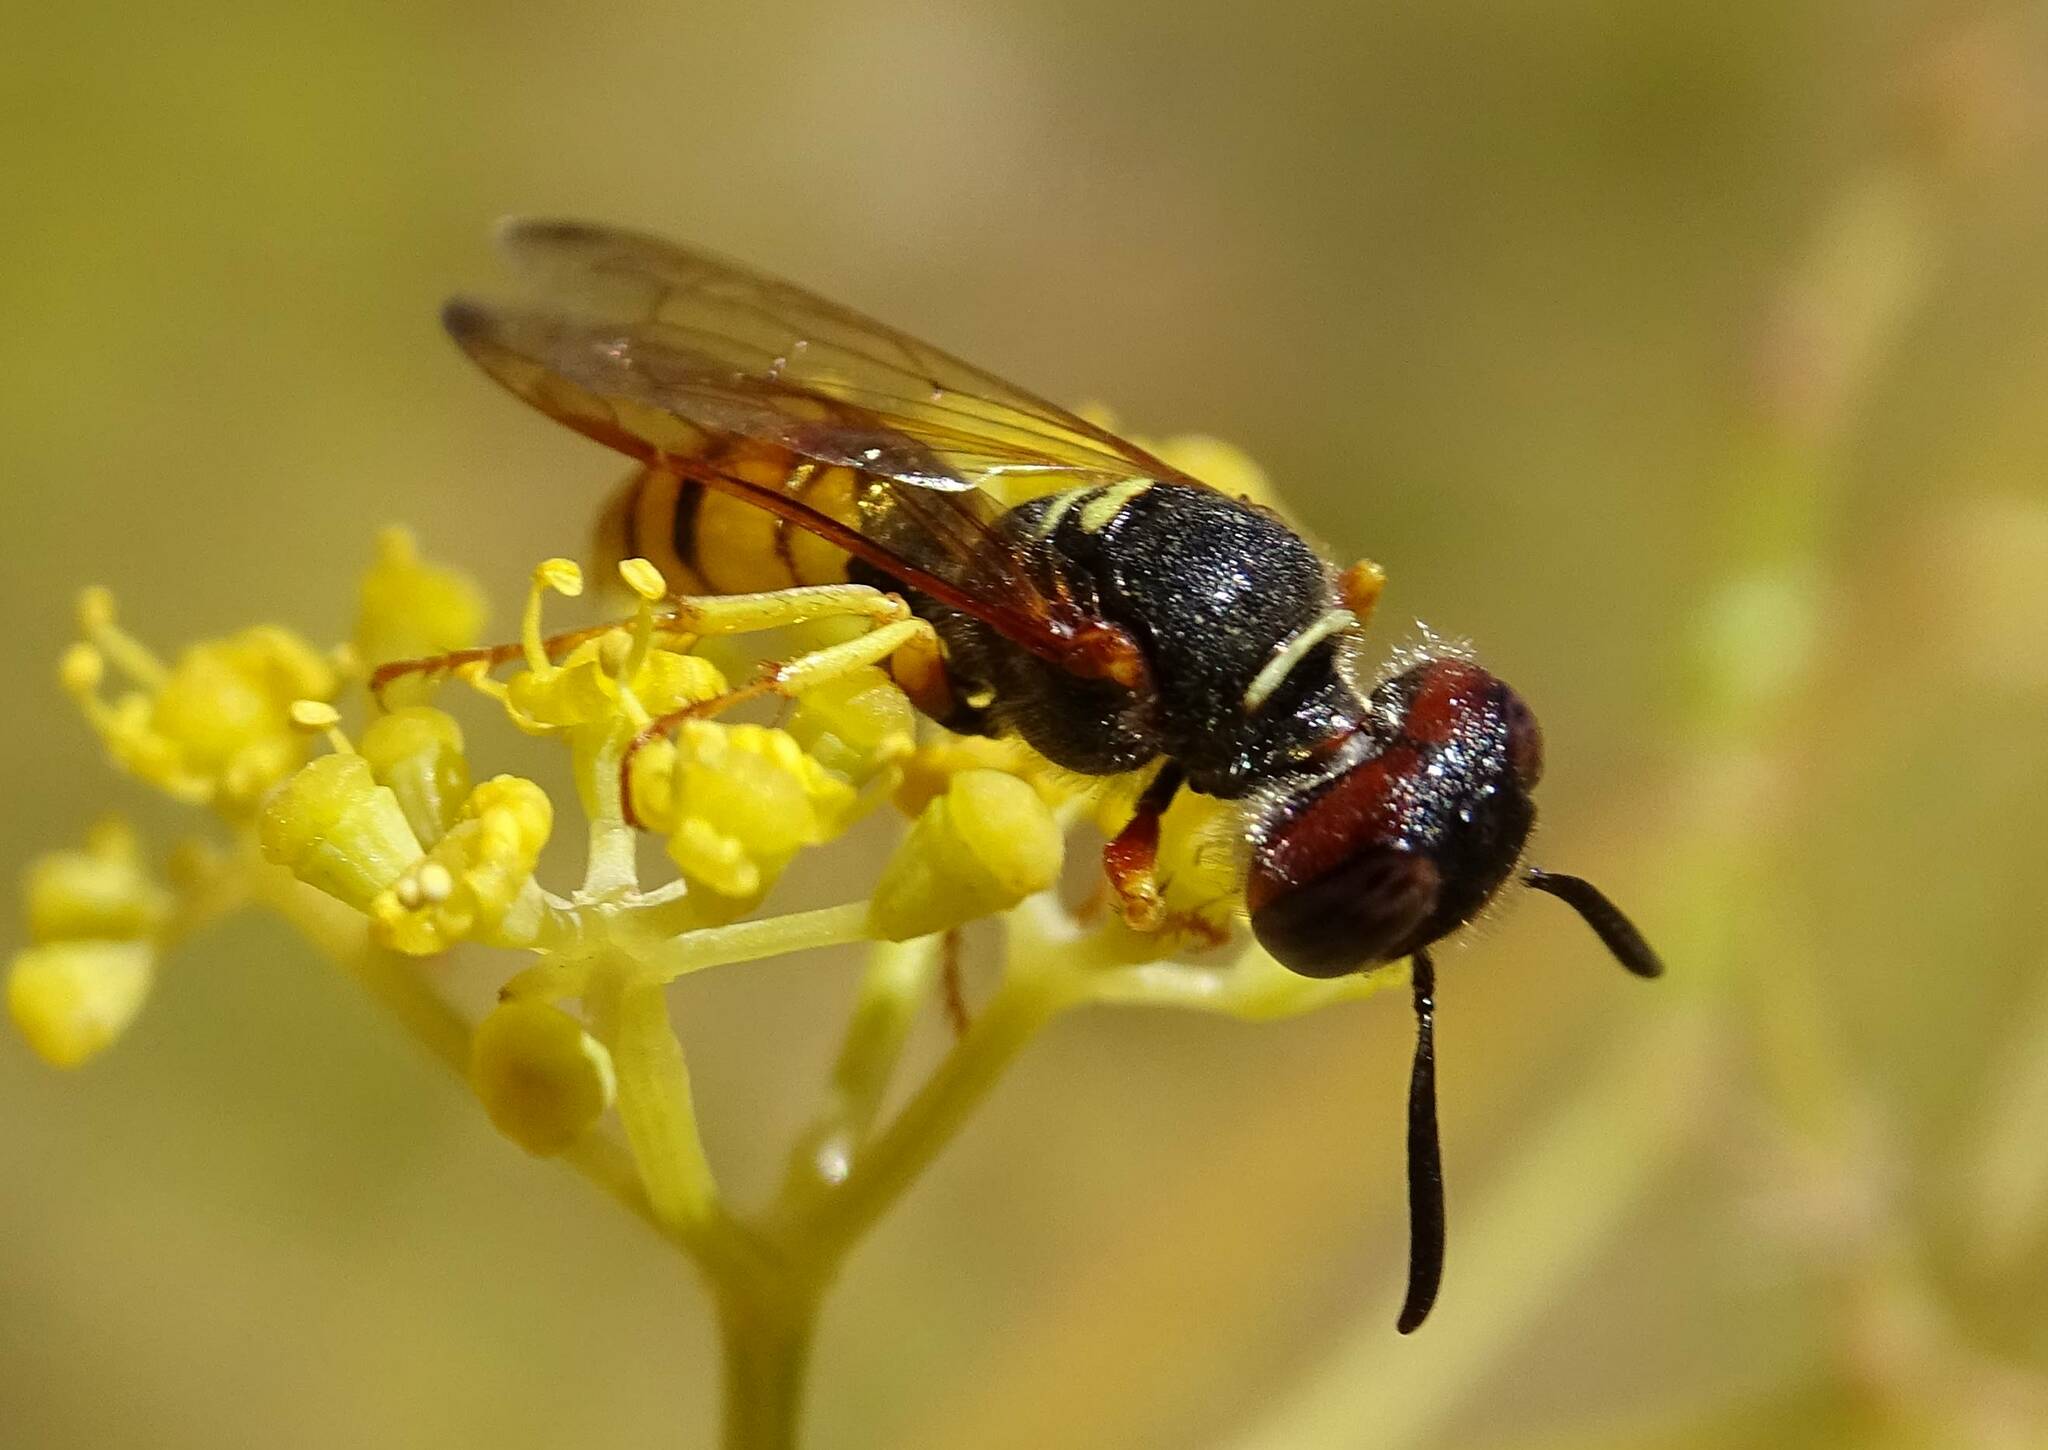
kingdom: Animalia
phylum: Arthropoda
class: Insecta
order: Hymenoptera
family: Crabronidae
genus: Philanthus
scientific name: Philanthus triangulum
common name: Bee wolf
